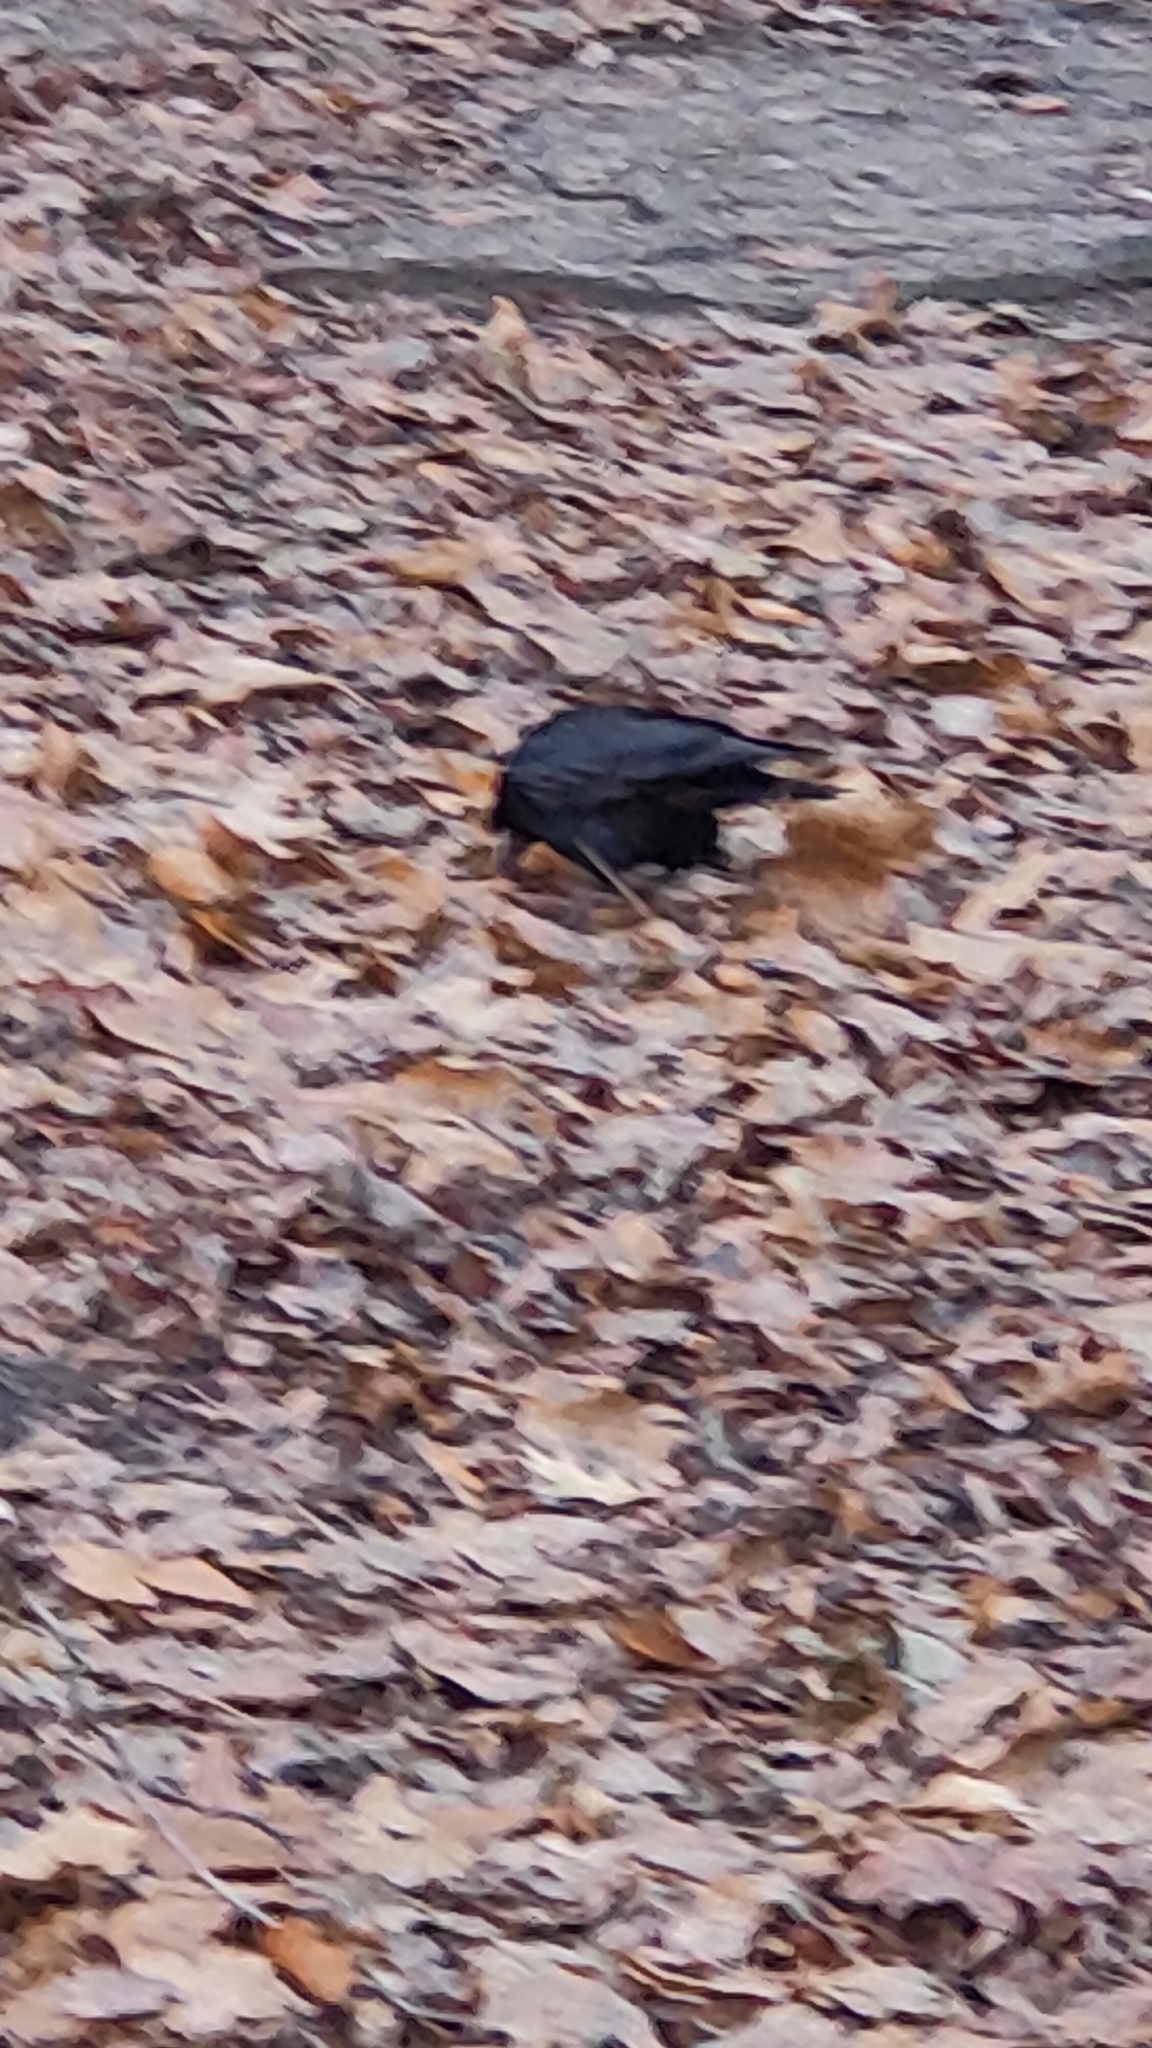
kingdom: Animalia
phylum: Chordata
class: Aves
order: Passeriformes
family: Corvidae
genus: Corvus
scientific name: Corvus frugilegus
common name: Rook
